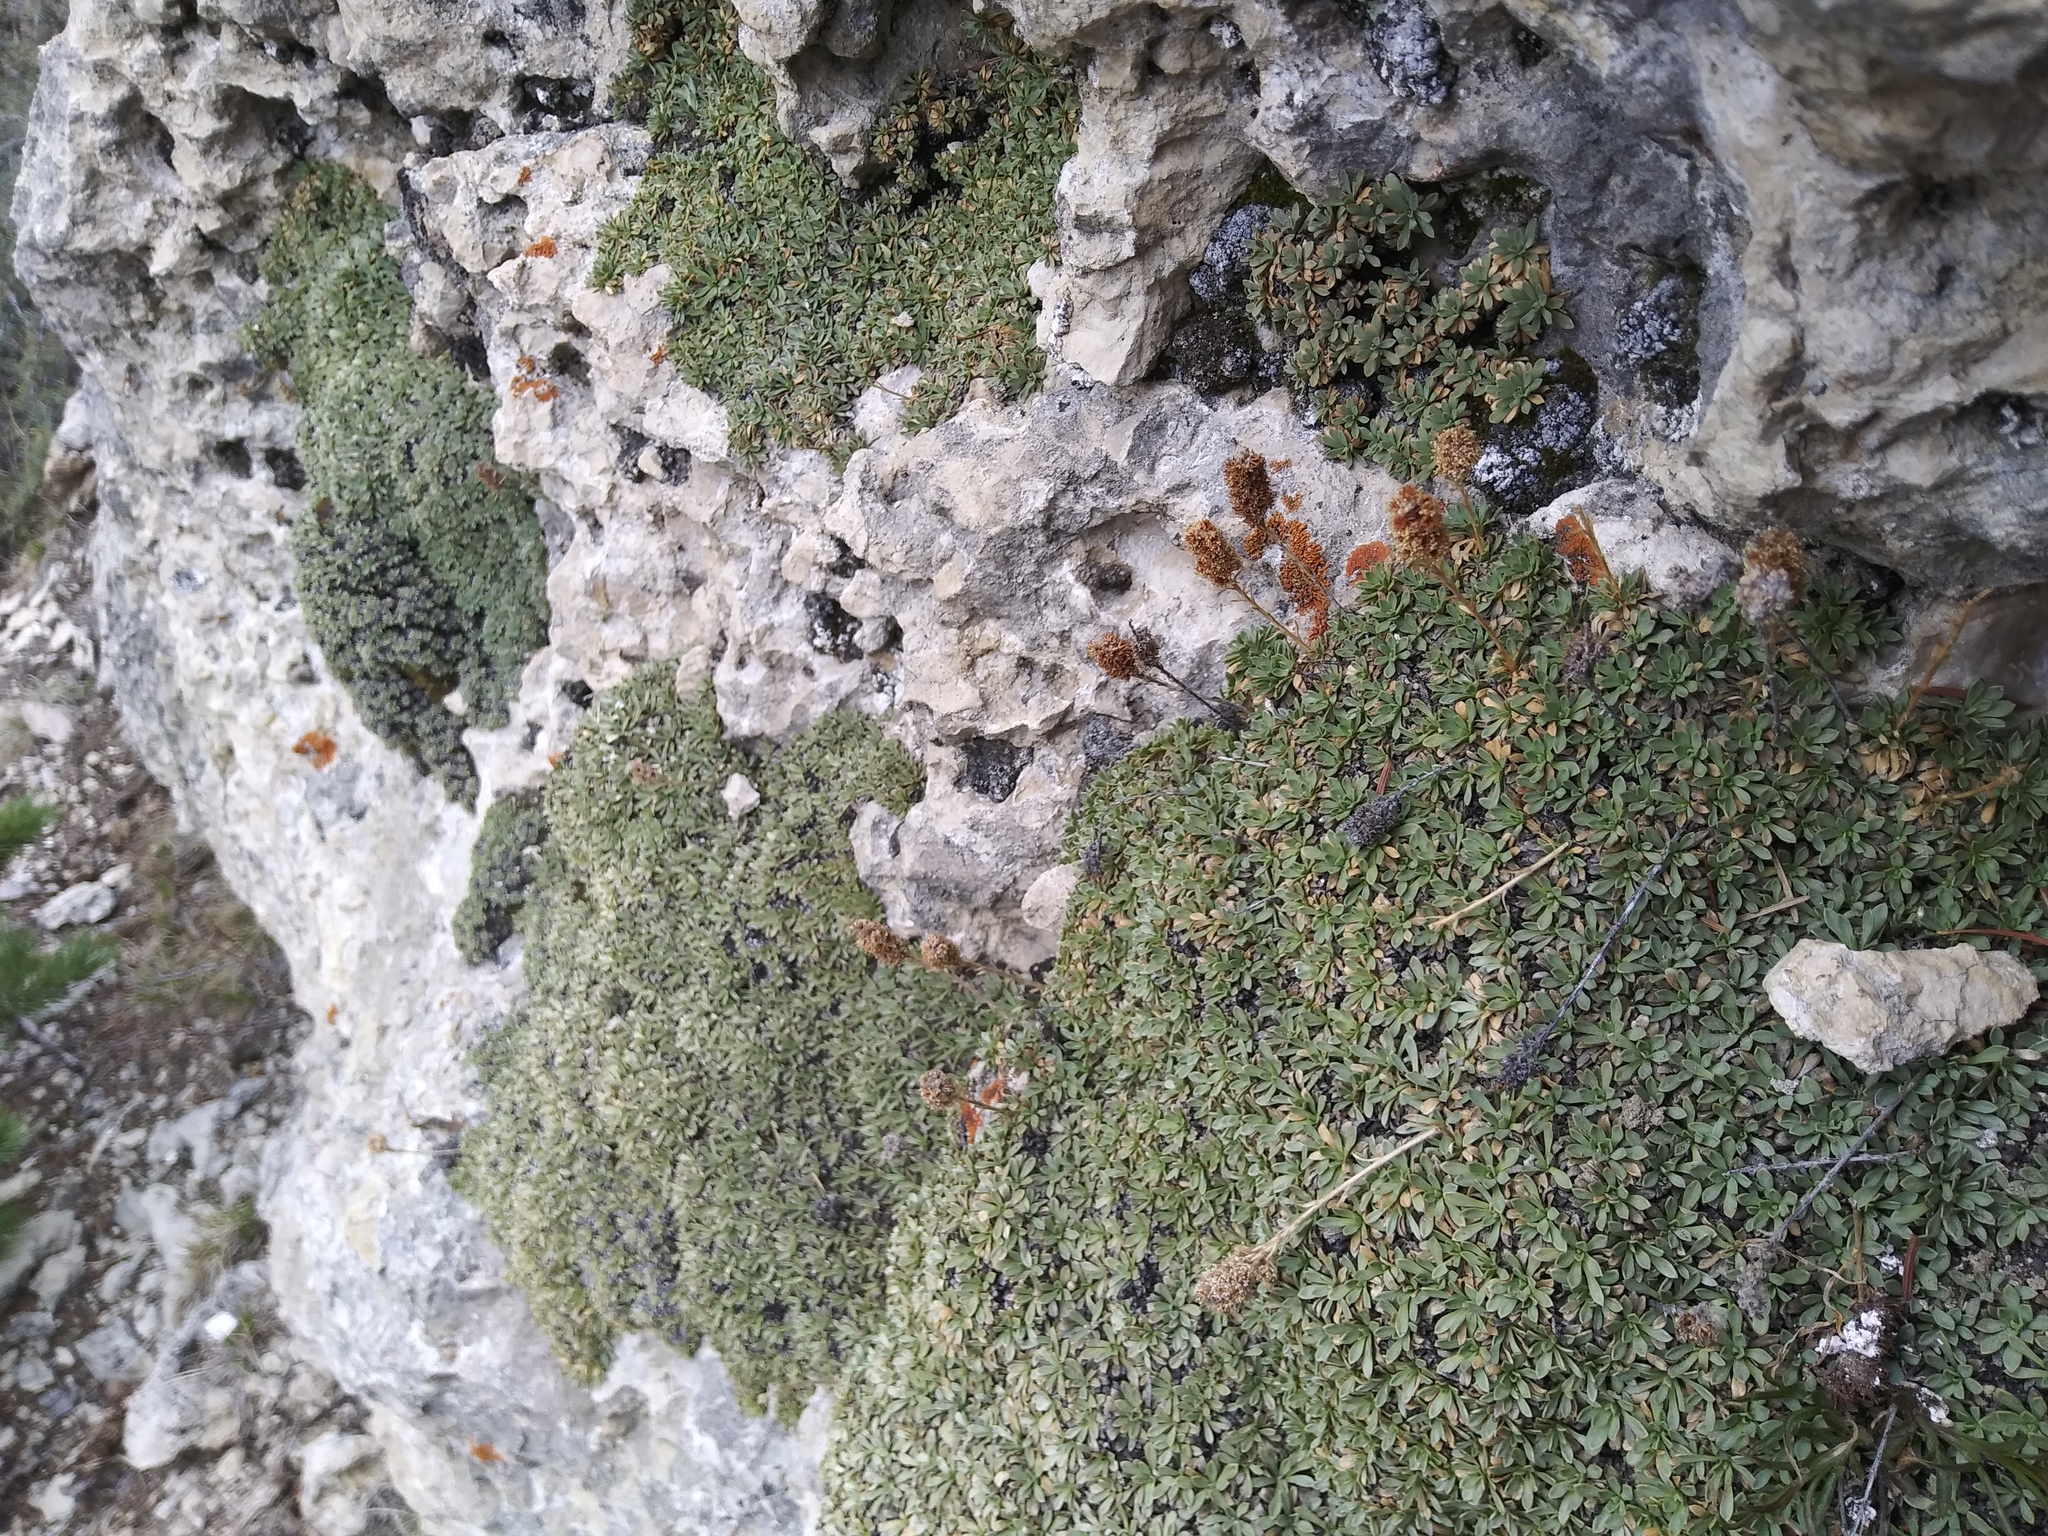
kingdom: Plantae
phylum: Tracheophyta
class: Magnoliopsida
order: Rosales
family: Rosaceae
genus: Petrophytum
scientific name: Petrophytum caespitosum
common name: Mat rockspirea
